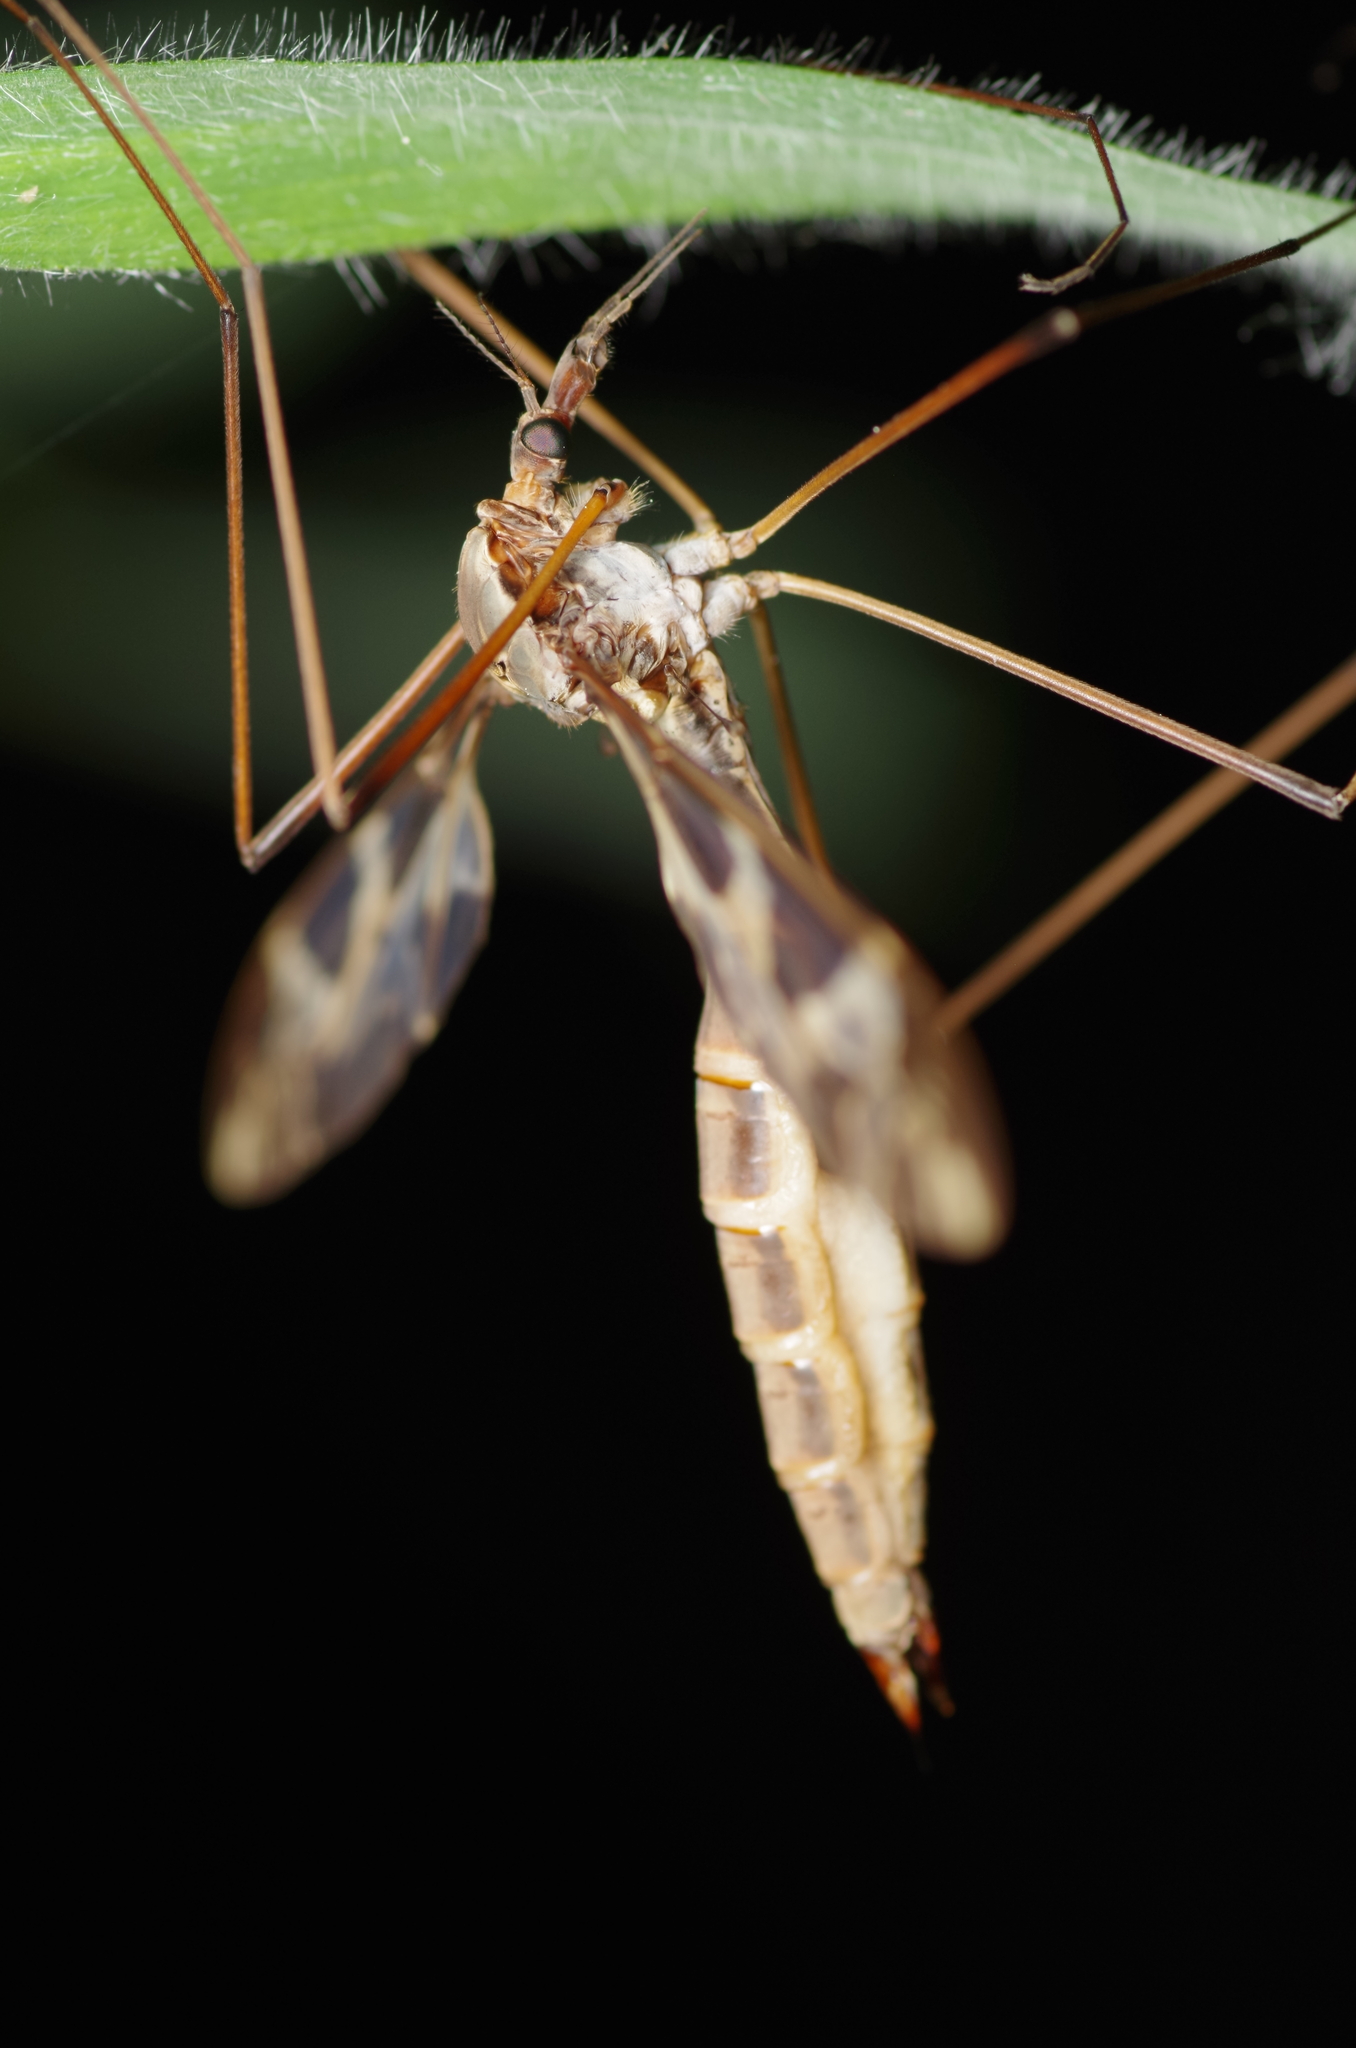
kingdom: Animalia
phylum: Arthropoda
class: Insecta
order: Diptera
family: Tipulidae
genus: Tipula
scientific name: Tipula maxima
